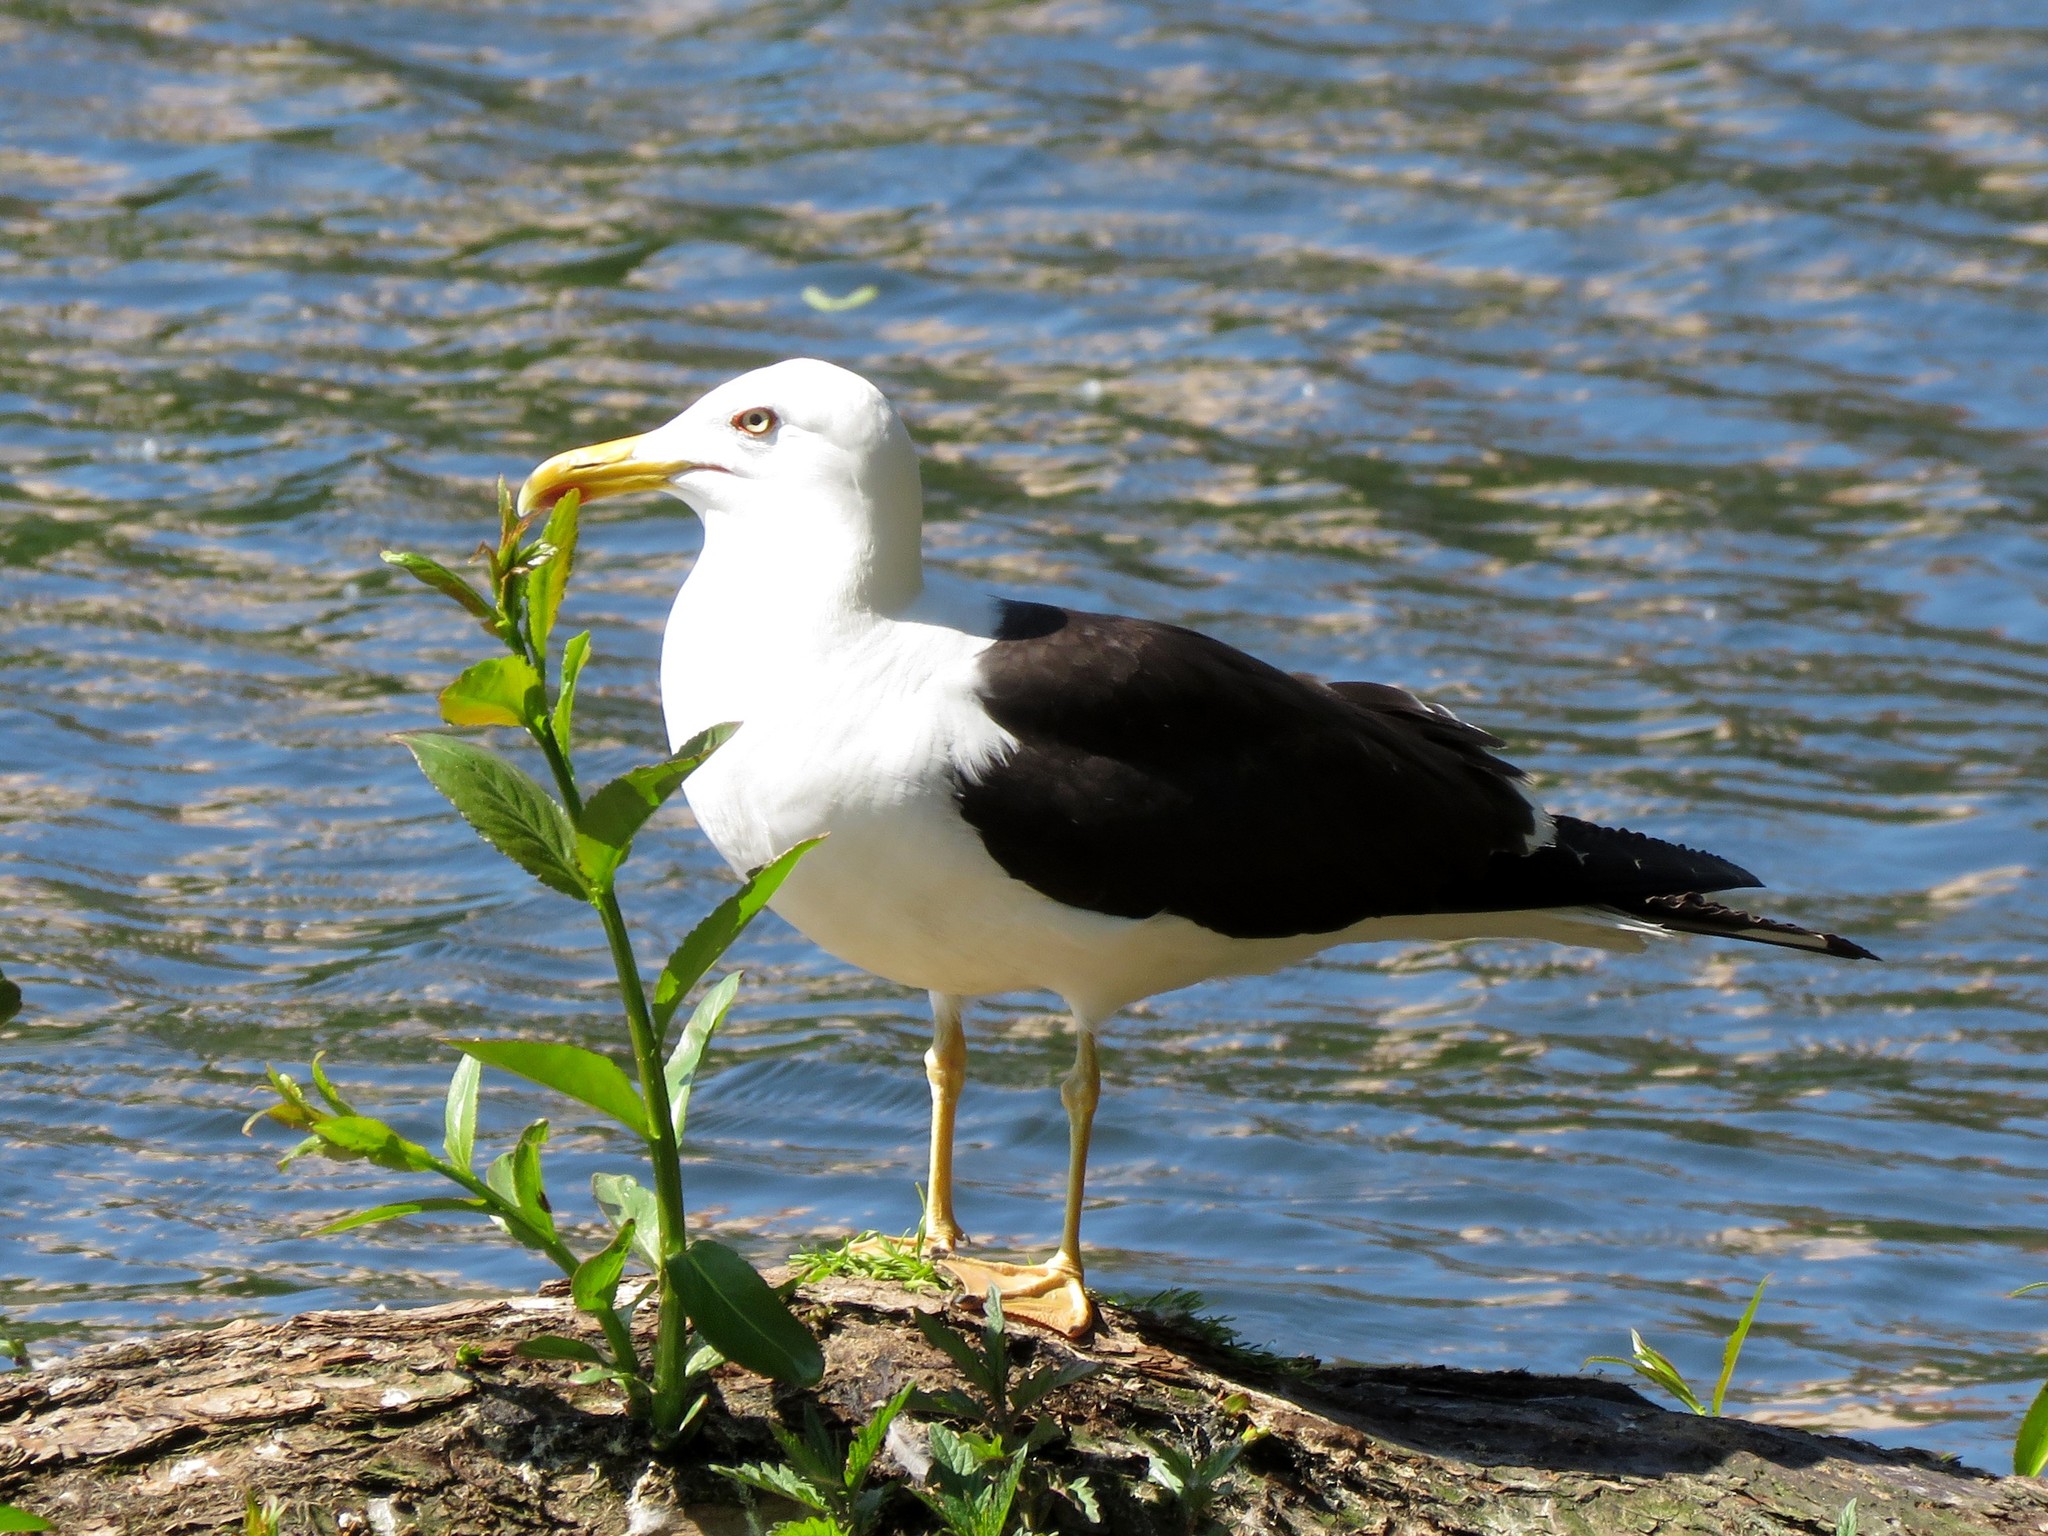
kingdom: Animalia
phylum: Chordata
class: Aves
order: Charadriiformes
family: Laridae
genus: Larus
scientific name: Larus fuscus
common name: Lesser black-backed gull
